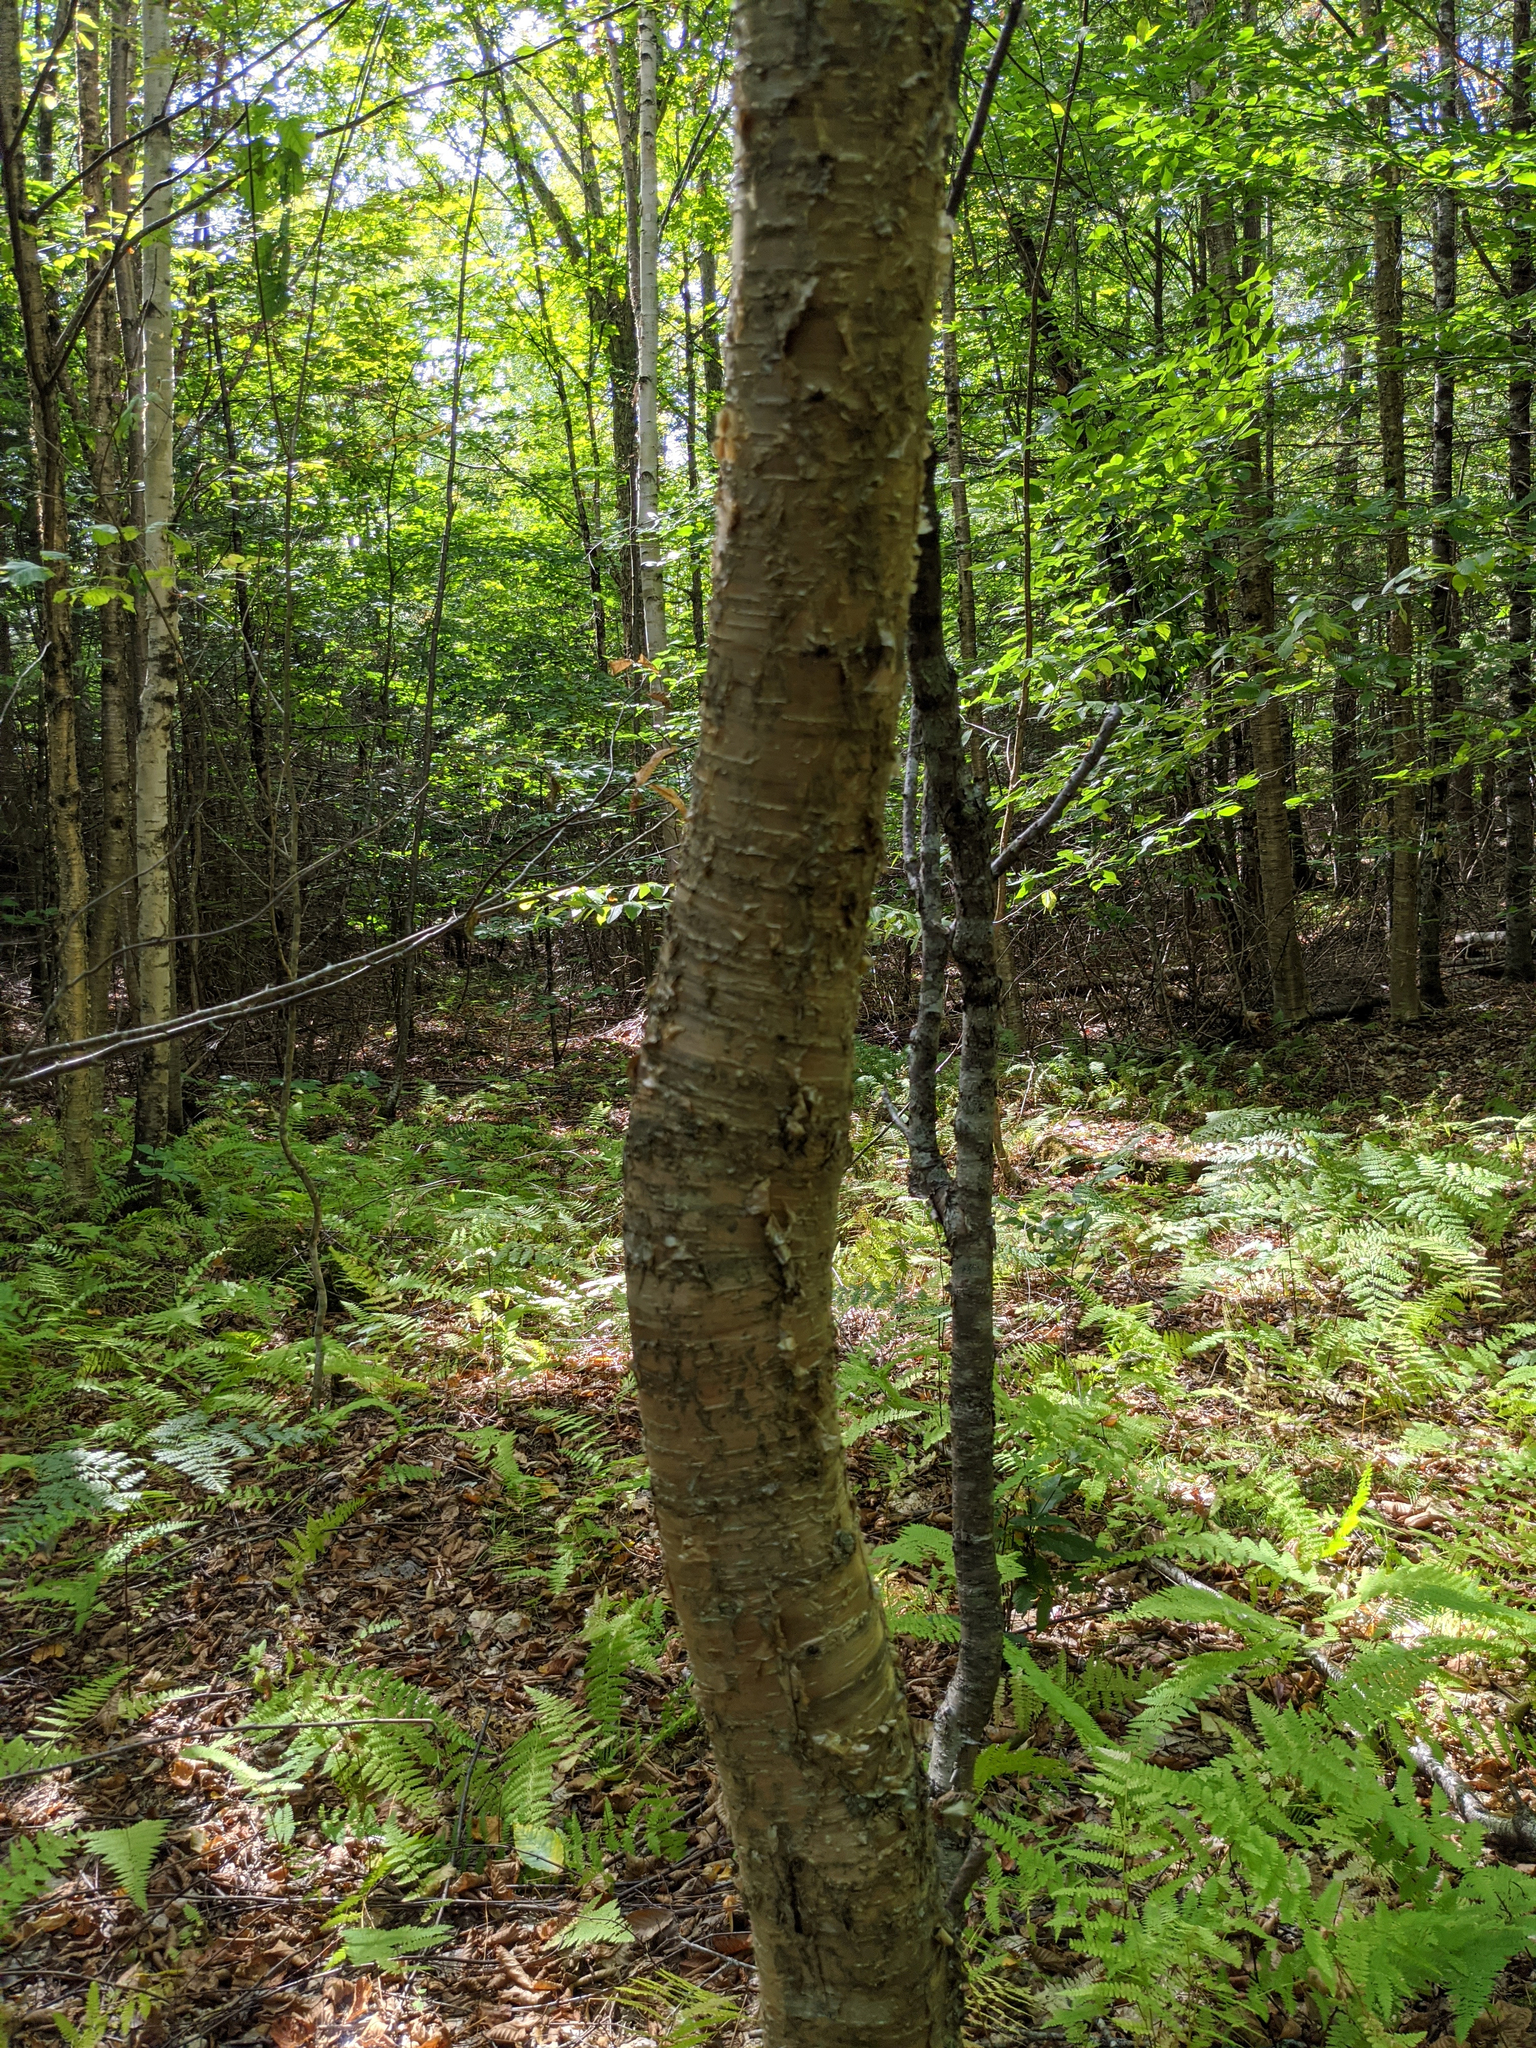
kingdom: Plantae
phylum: Tracheophyta
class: Magnoliopsida
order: Fagales
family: Betulaceae
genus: Betula
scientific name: Betula alleghaniensis
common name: Yellow birch
